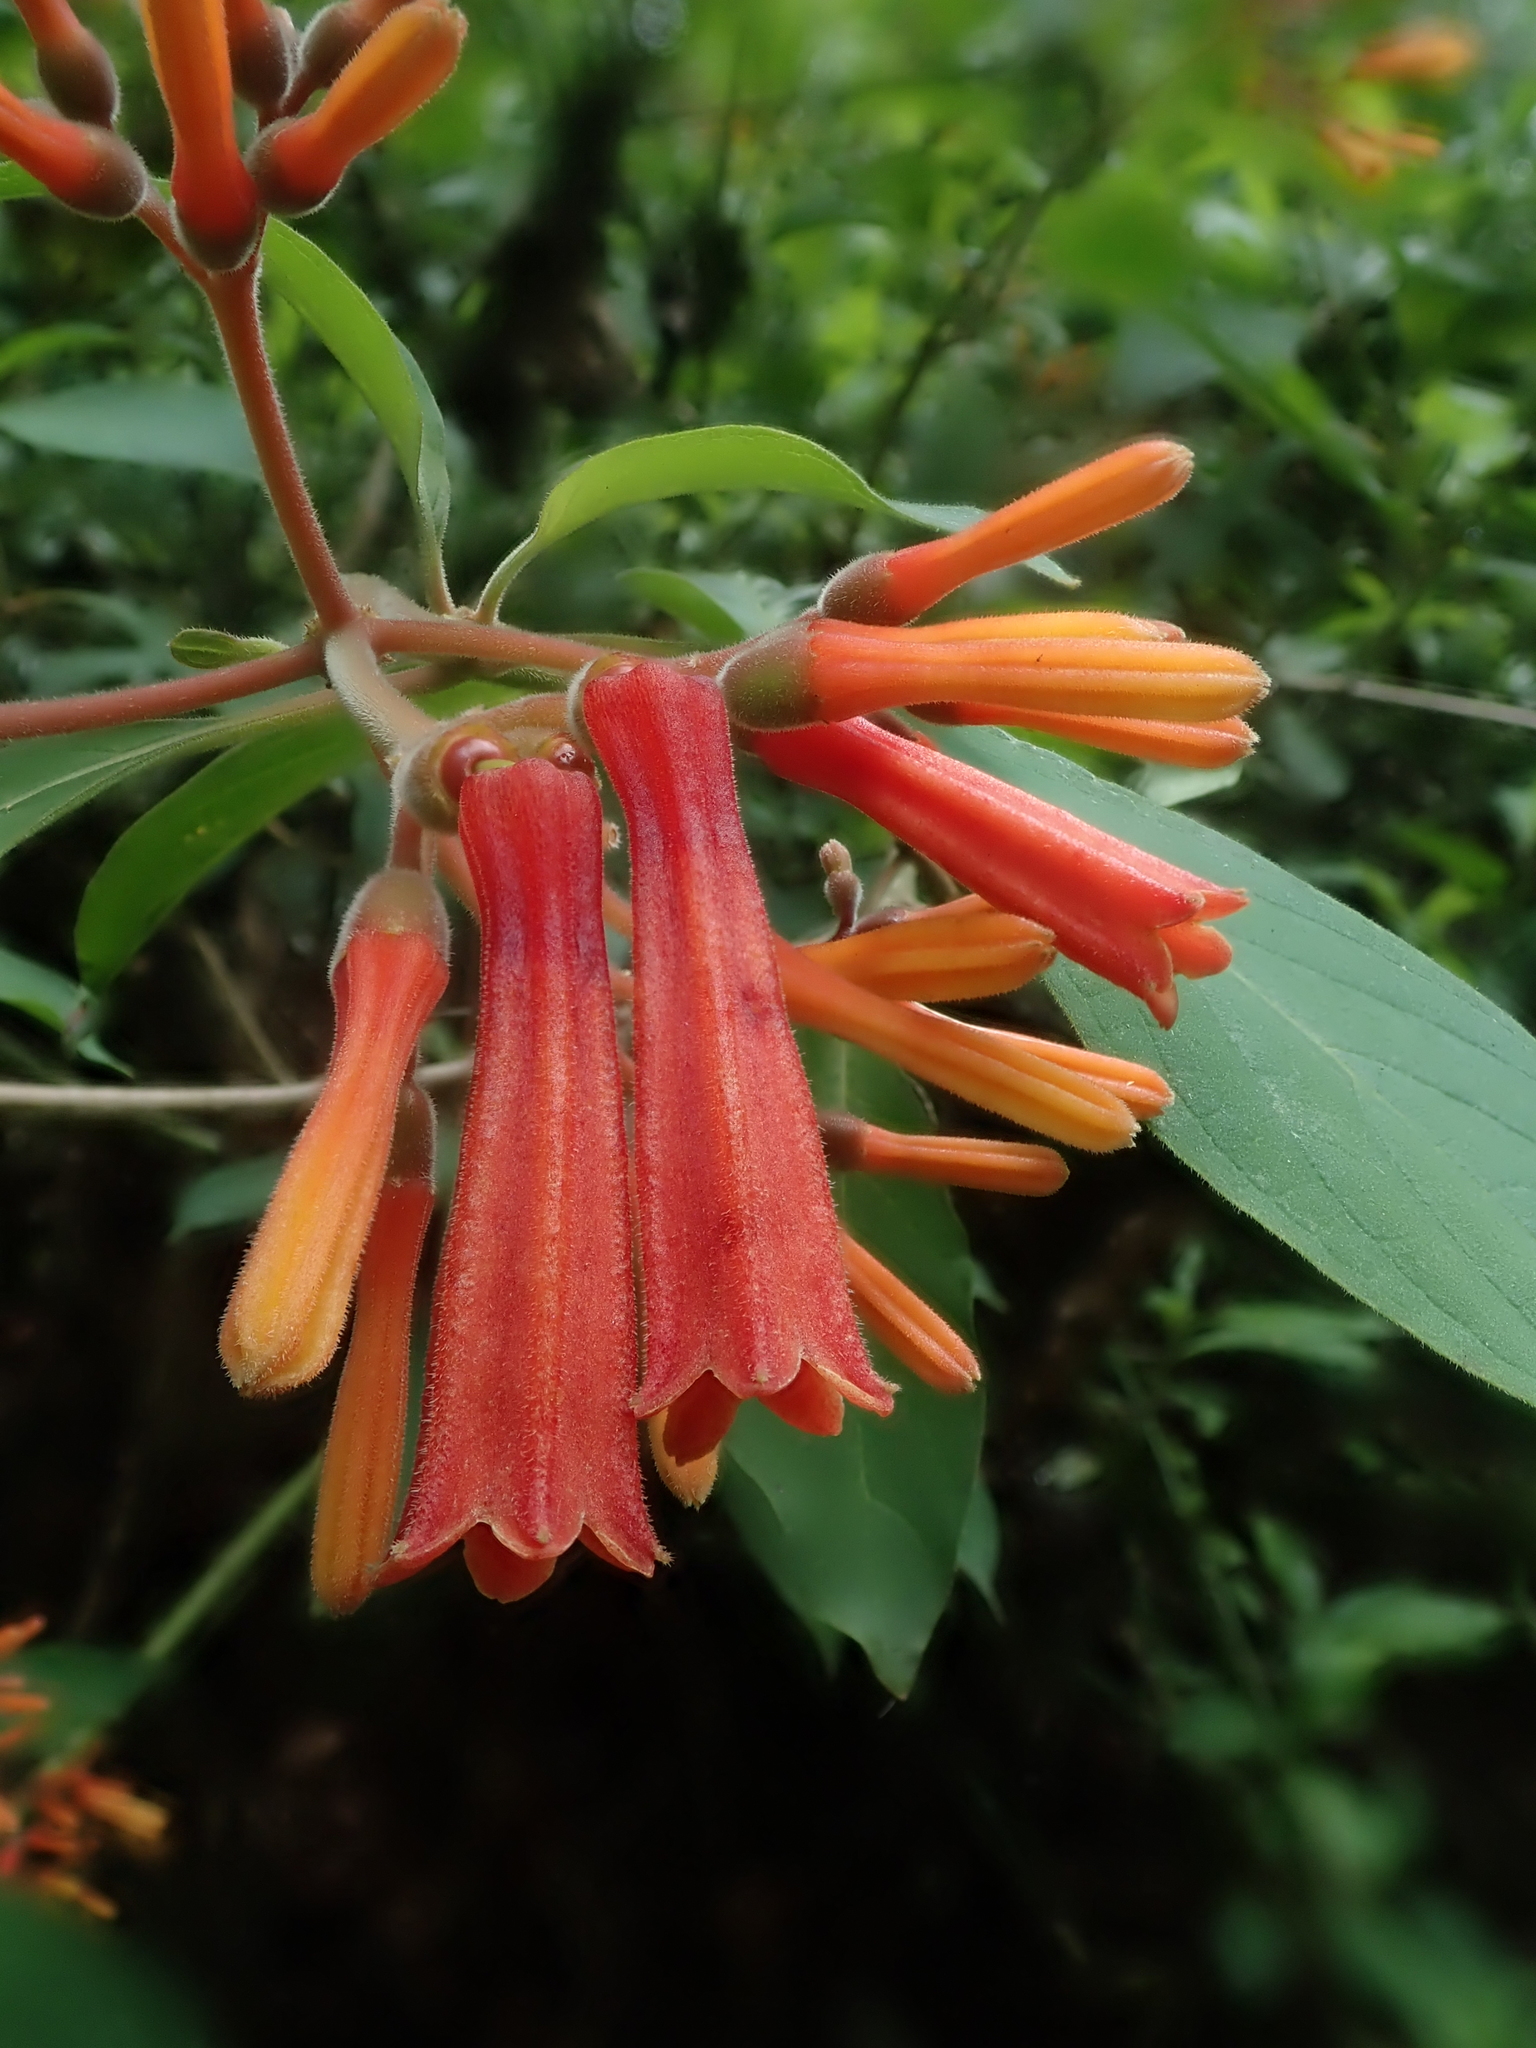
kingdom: Plantae
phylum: Tracheophyta
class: Magnoliopsida
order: Gentianales
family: Rubiaceae
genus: Hamelia
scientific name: Hamelia patens
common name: Redhead
